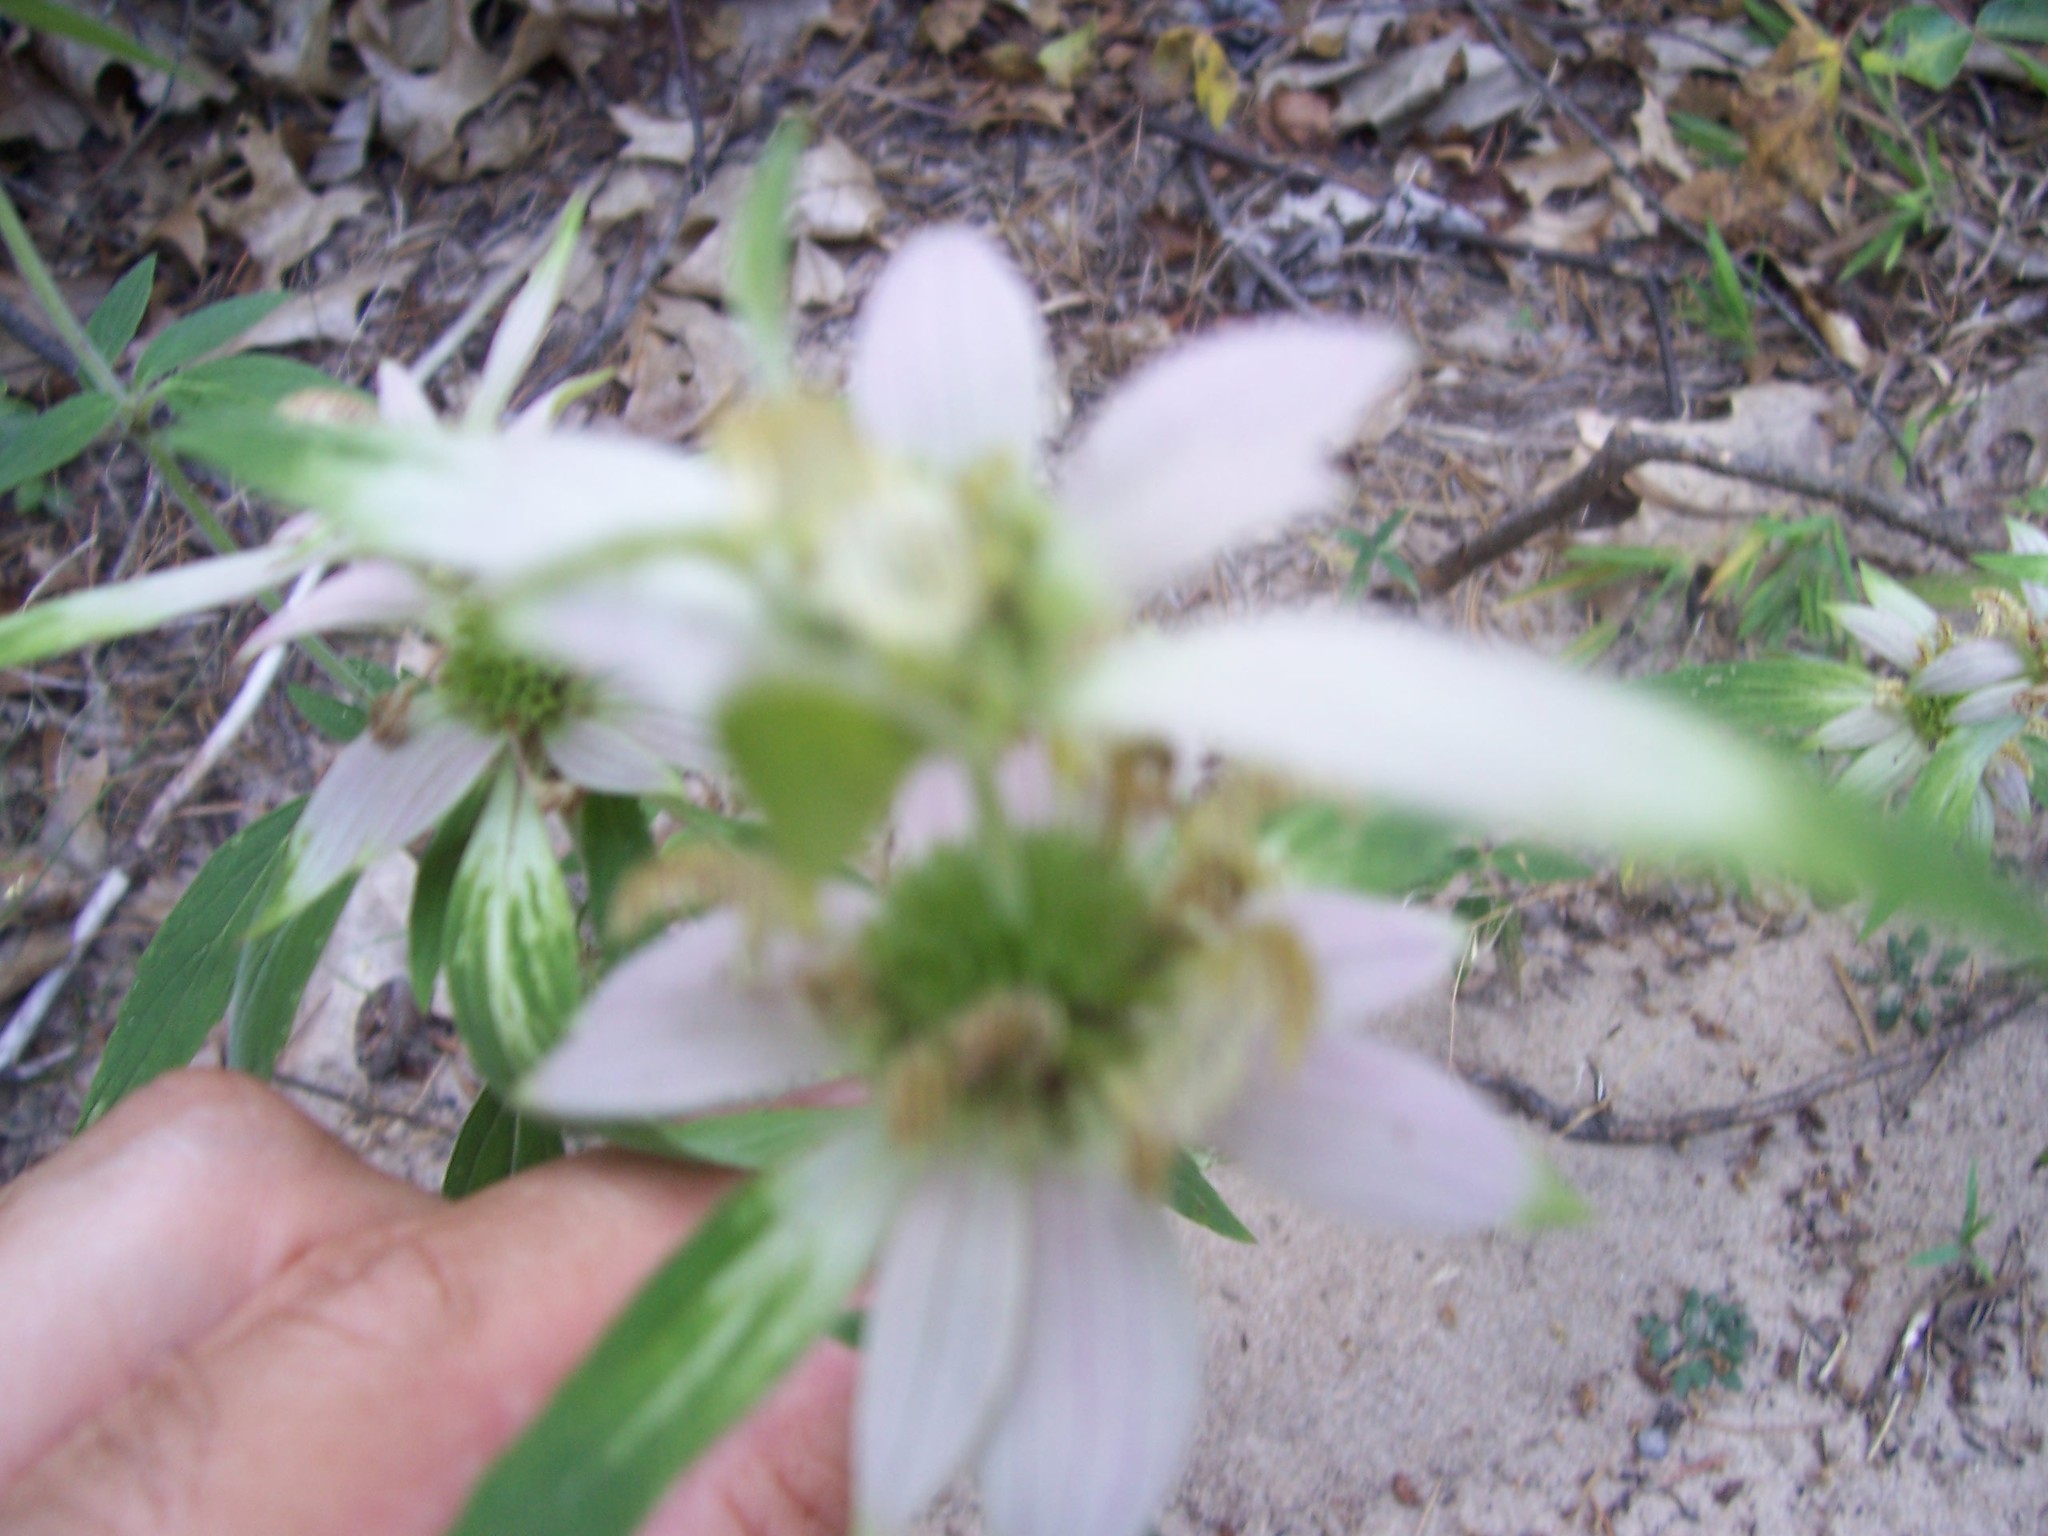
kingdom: Plantae
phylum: Tracheophyta
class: Magnoliopsida
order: Lamiales
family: Lamiaceae
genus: Monarda
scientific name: Monarda punctata
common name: Dotted monarda
